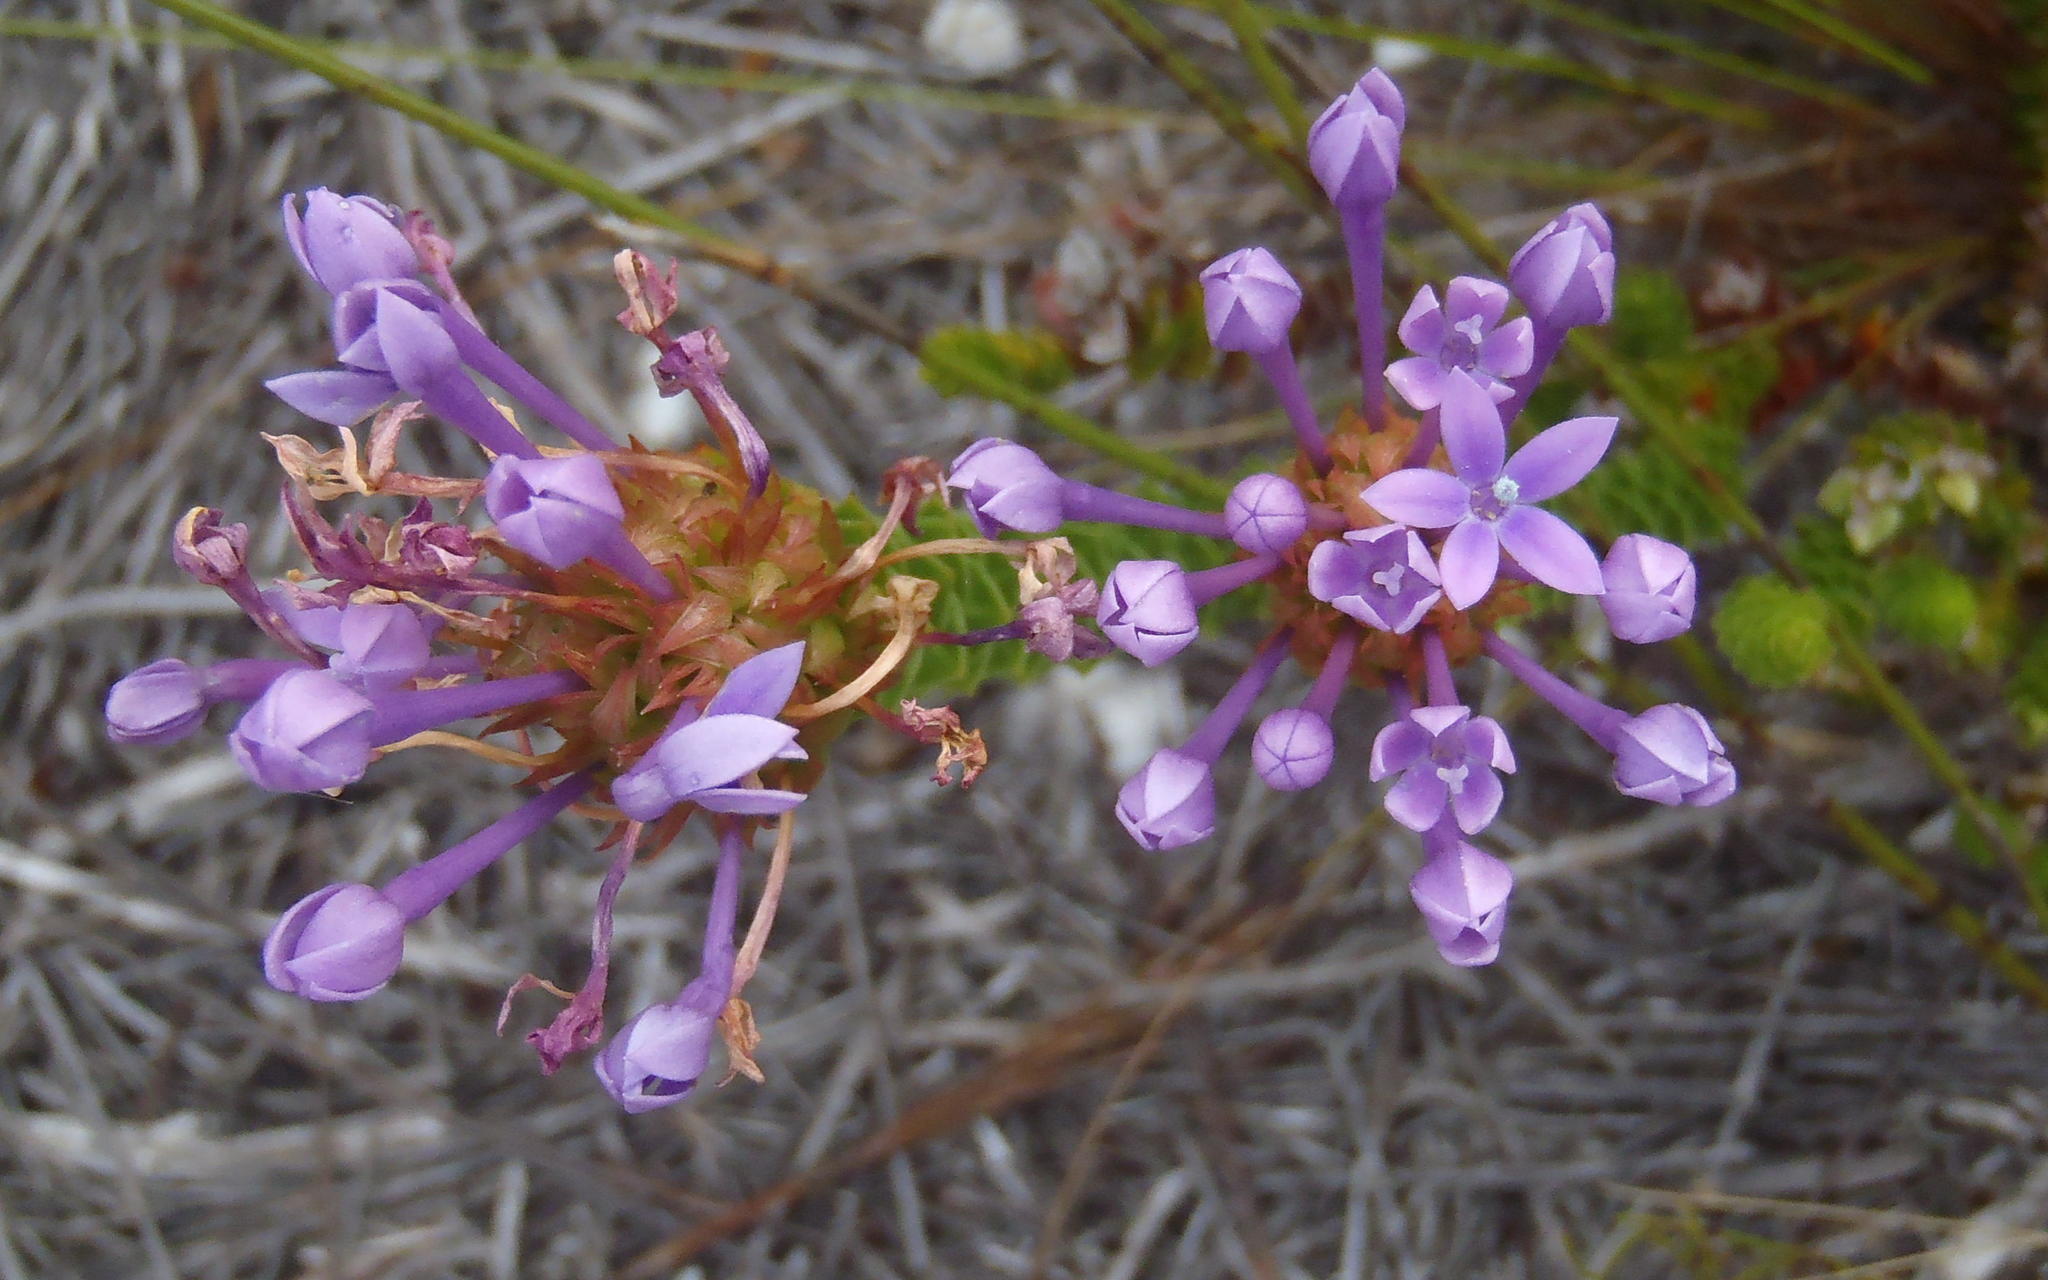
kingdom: Plantae
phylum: Tracheophyta
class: Magnoliopsida
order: Asterales
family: Campanulaceae
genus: Rhigiophyllum
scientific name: Rhigiophyllum squarrosum
